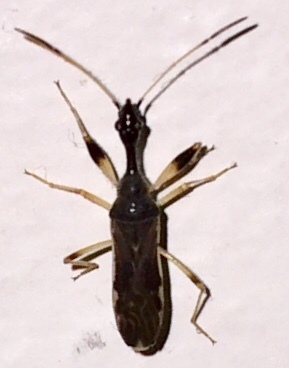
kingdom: Animalia
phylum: Arthropoda
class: Insecta
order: Hemiptera
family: Rhyparochromidae
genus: Myodocha
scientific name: Myodocha serripes
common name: Long-necked seed bug
